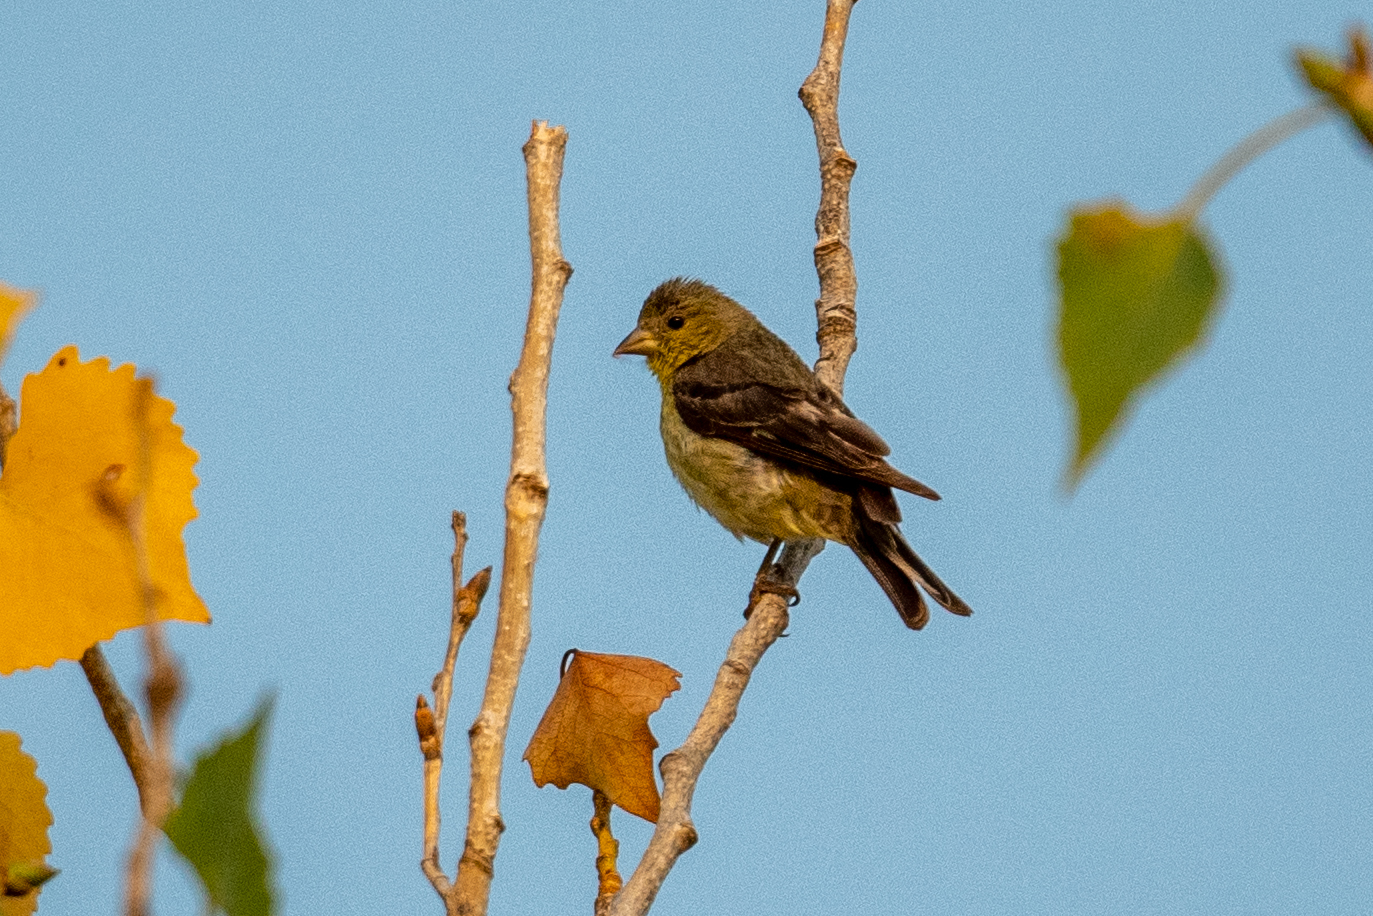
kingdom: Animalia
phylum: Chordata
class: Aves
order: Passeriformes
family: Fringillidae
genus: Spinus
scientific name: Spinus psaltria
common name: Lesser goldfinch
